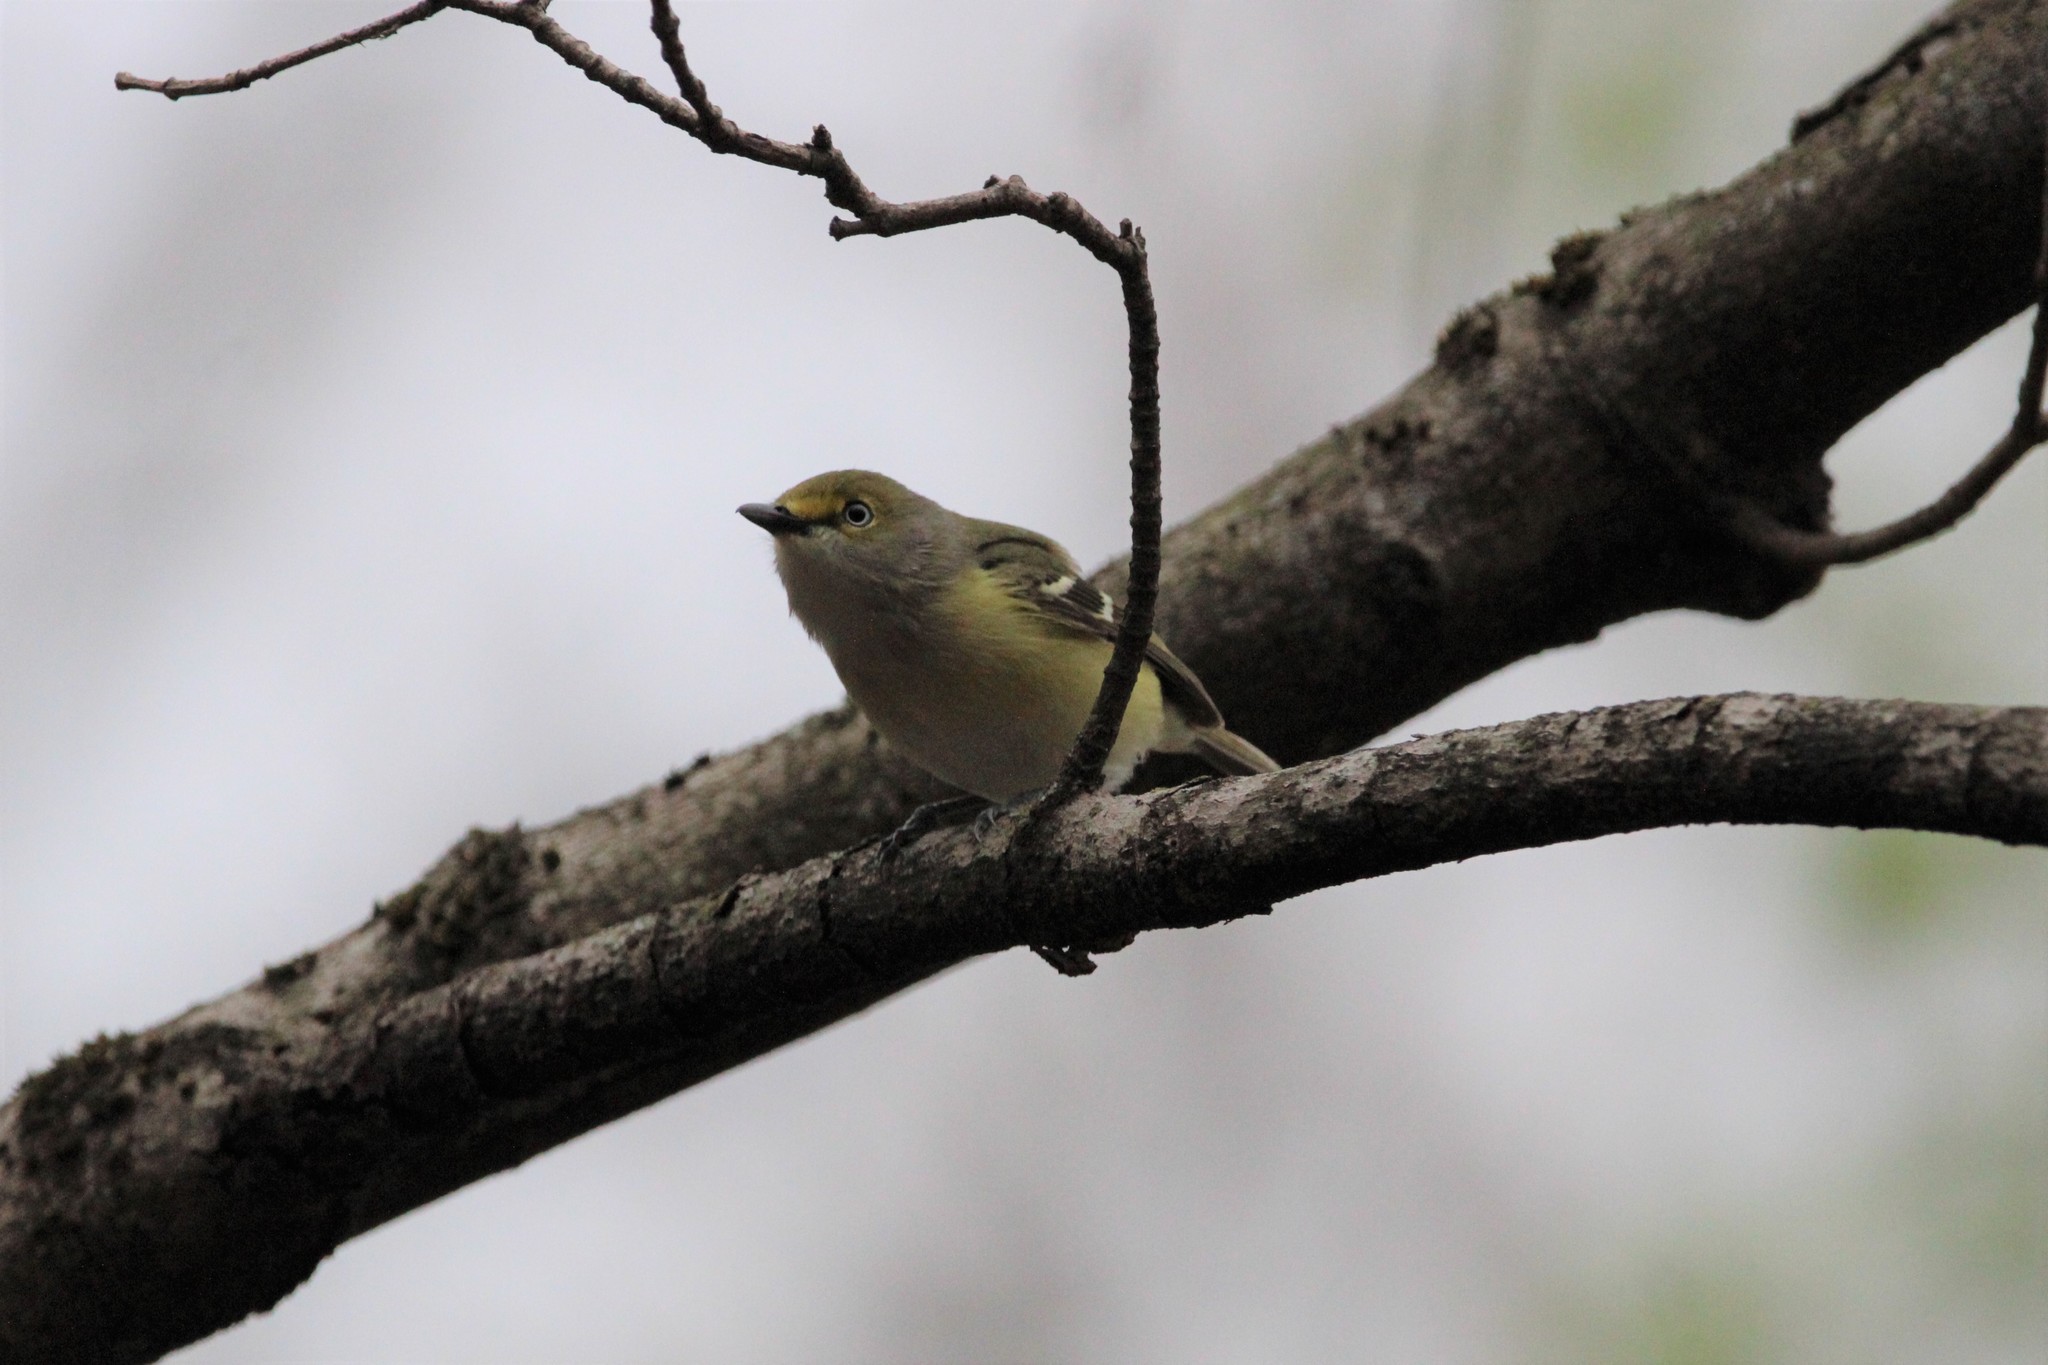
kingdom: Animalia
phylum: Chordata
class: Aves
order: Passeriformes
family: Vireonidae
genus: Vireo
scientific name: Vireo griseus
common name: White-eyed vireo
